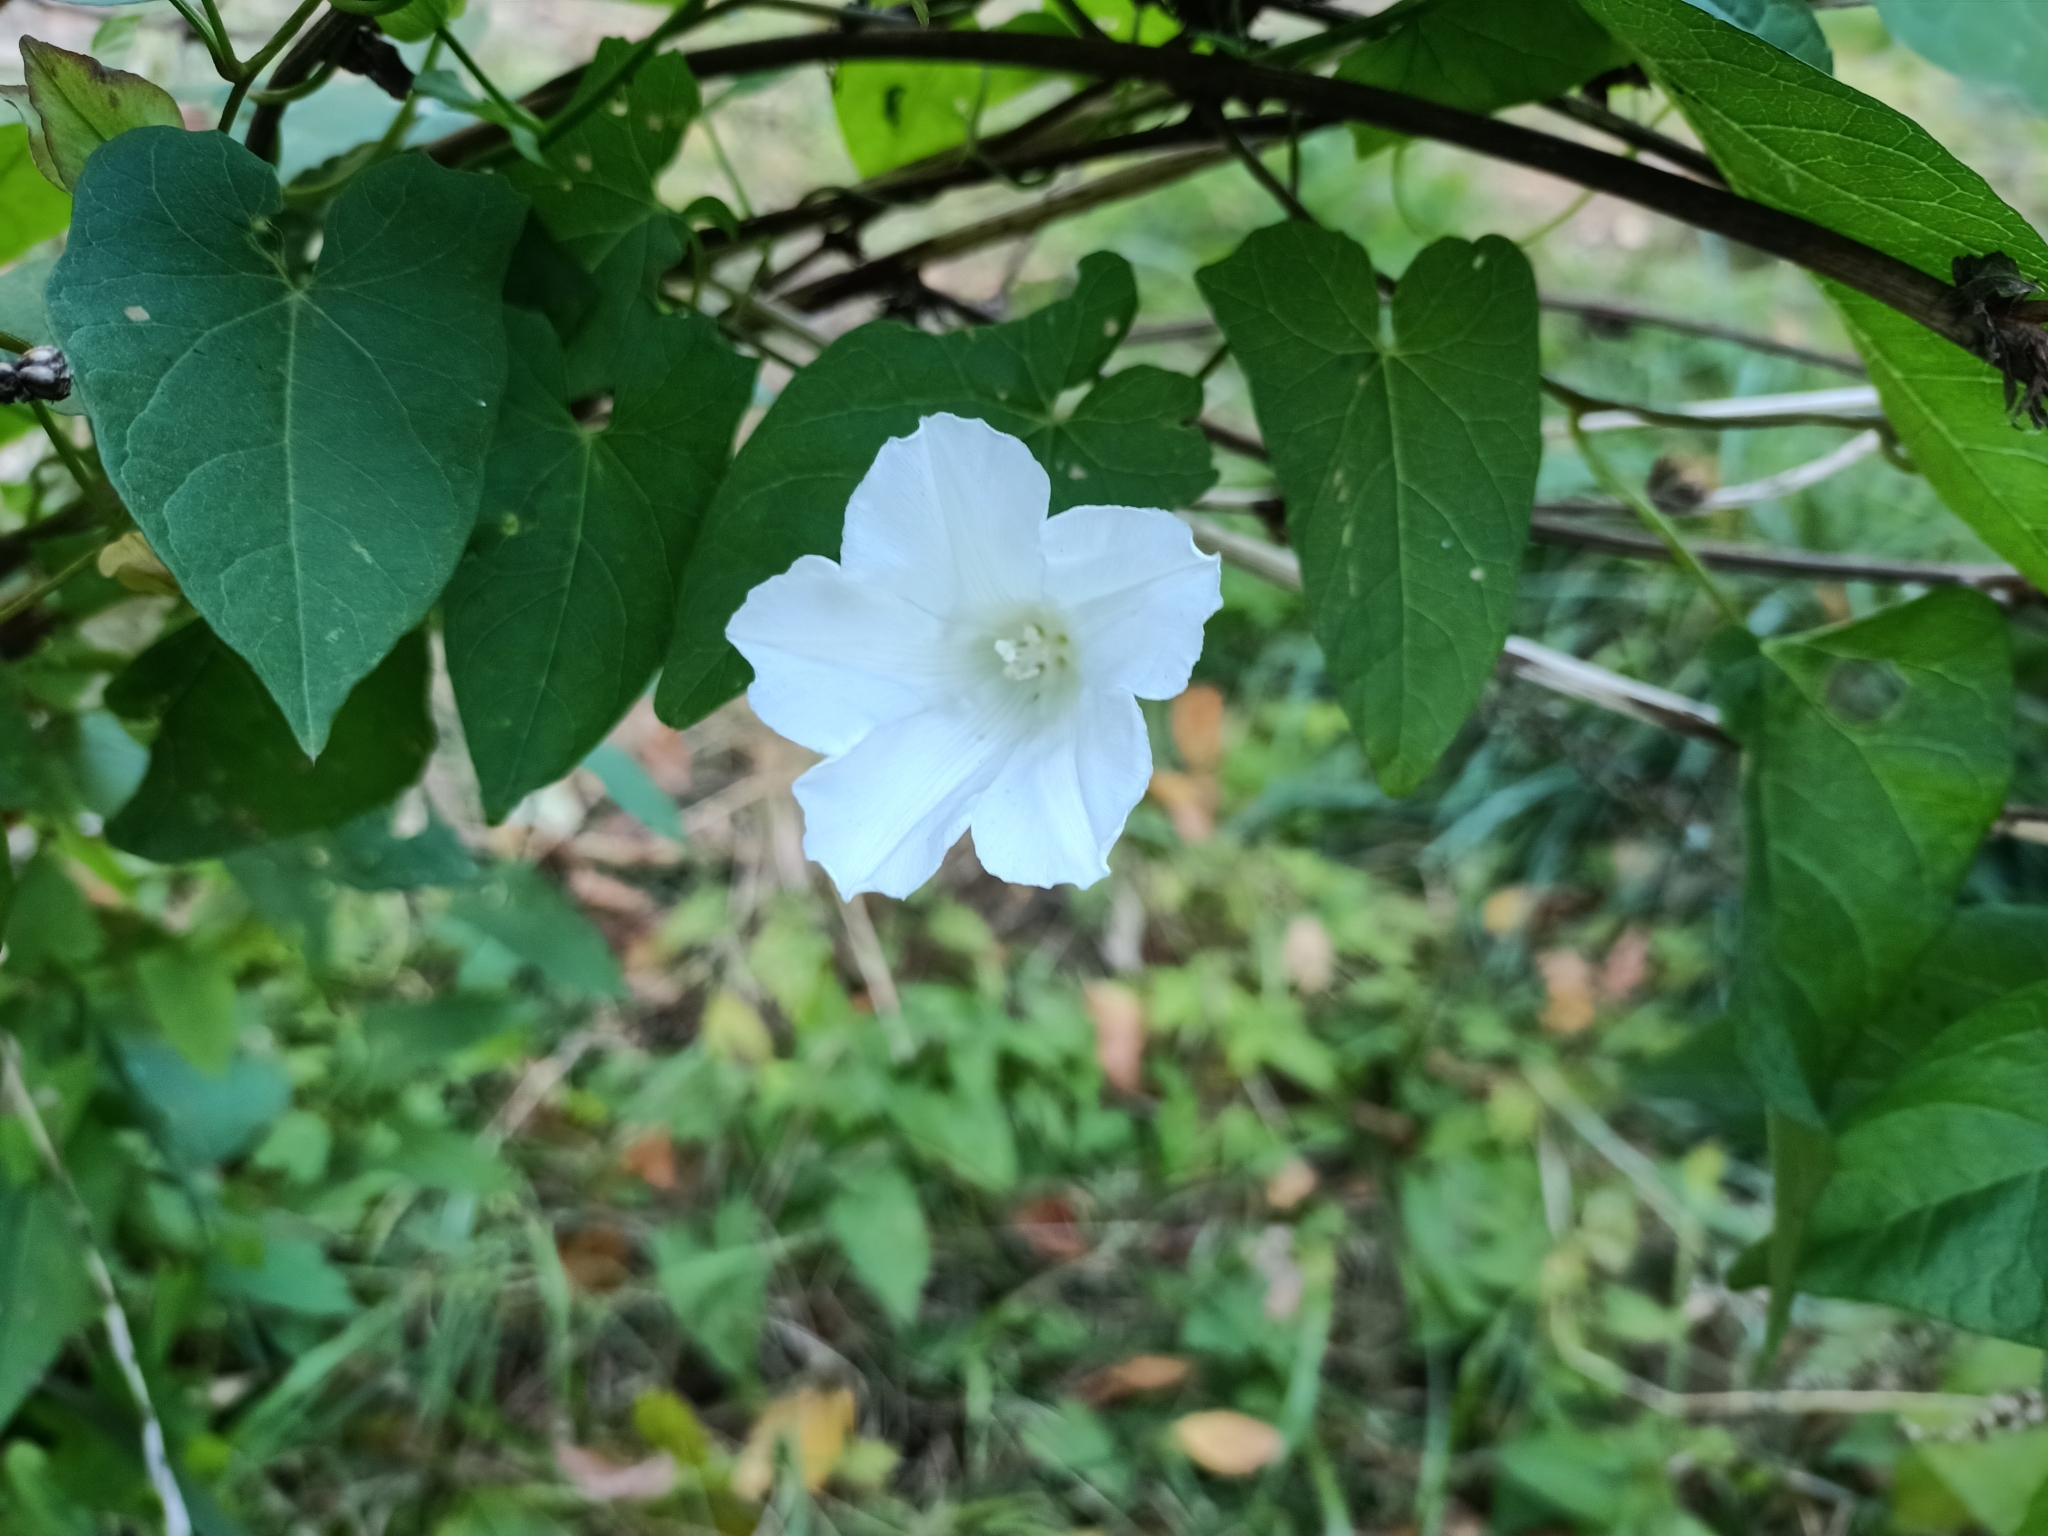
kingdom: Plantae
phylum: Tracheophyta
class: Magnoliopsida
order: Solanales
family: Convolvulaceae
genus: Calystegia
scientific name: Calystegia sepium
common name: Hedge bindweed
